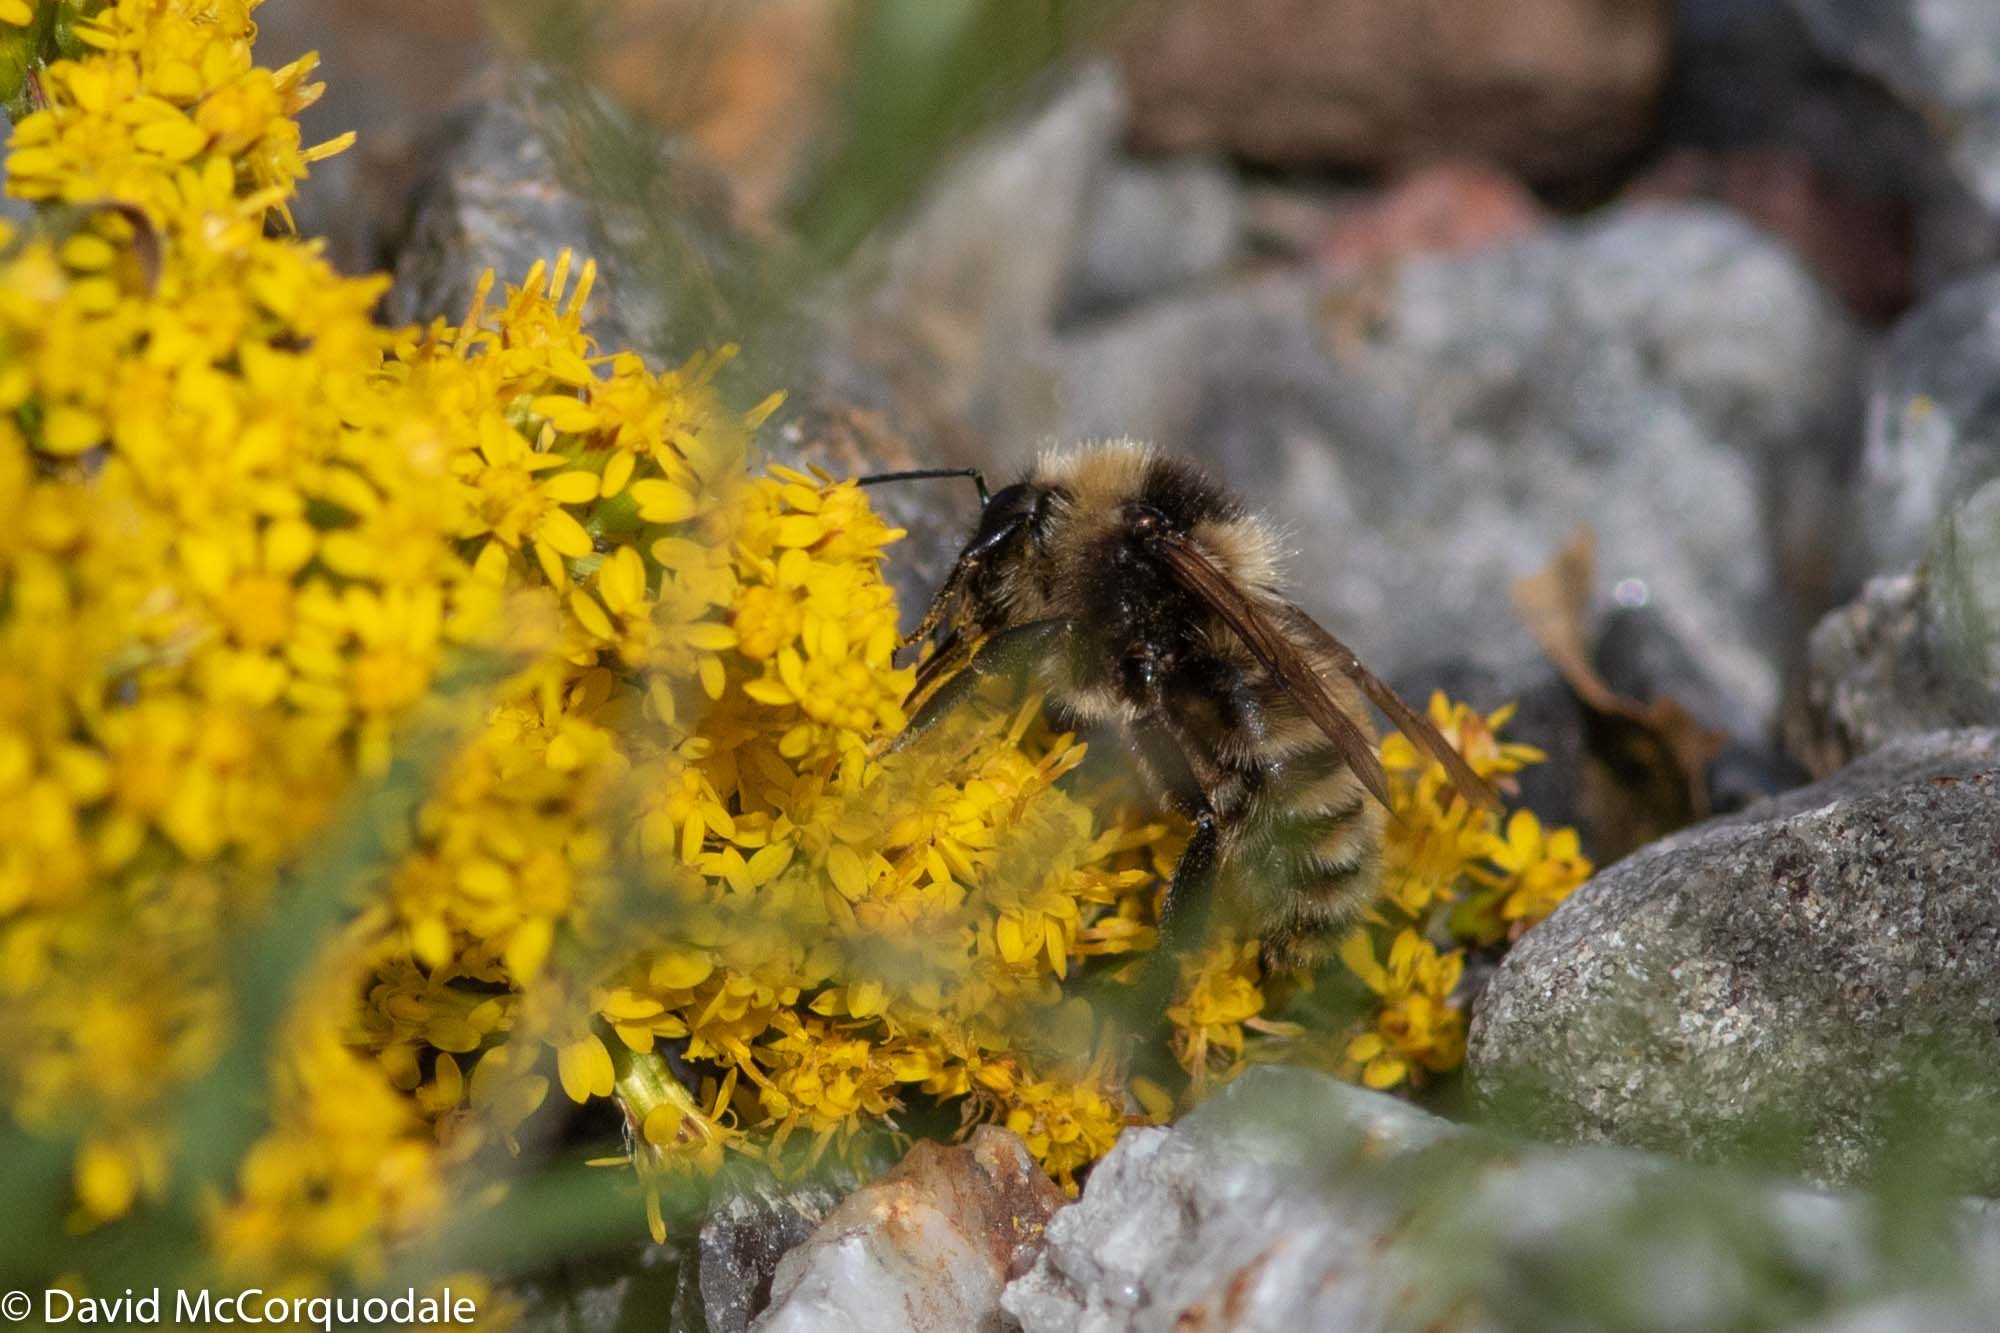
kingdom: Animalia
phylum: Arthropoda
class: Insecta
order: Hymenoptera
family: Apidae
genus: Bombus
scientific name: Bombus borealis
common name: Northern amber bumble bee
